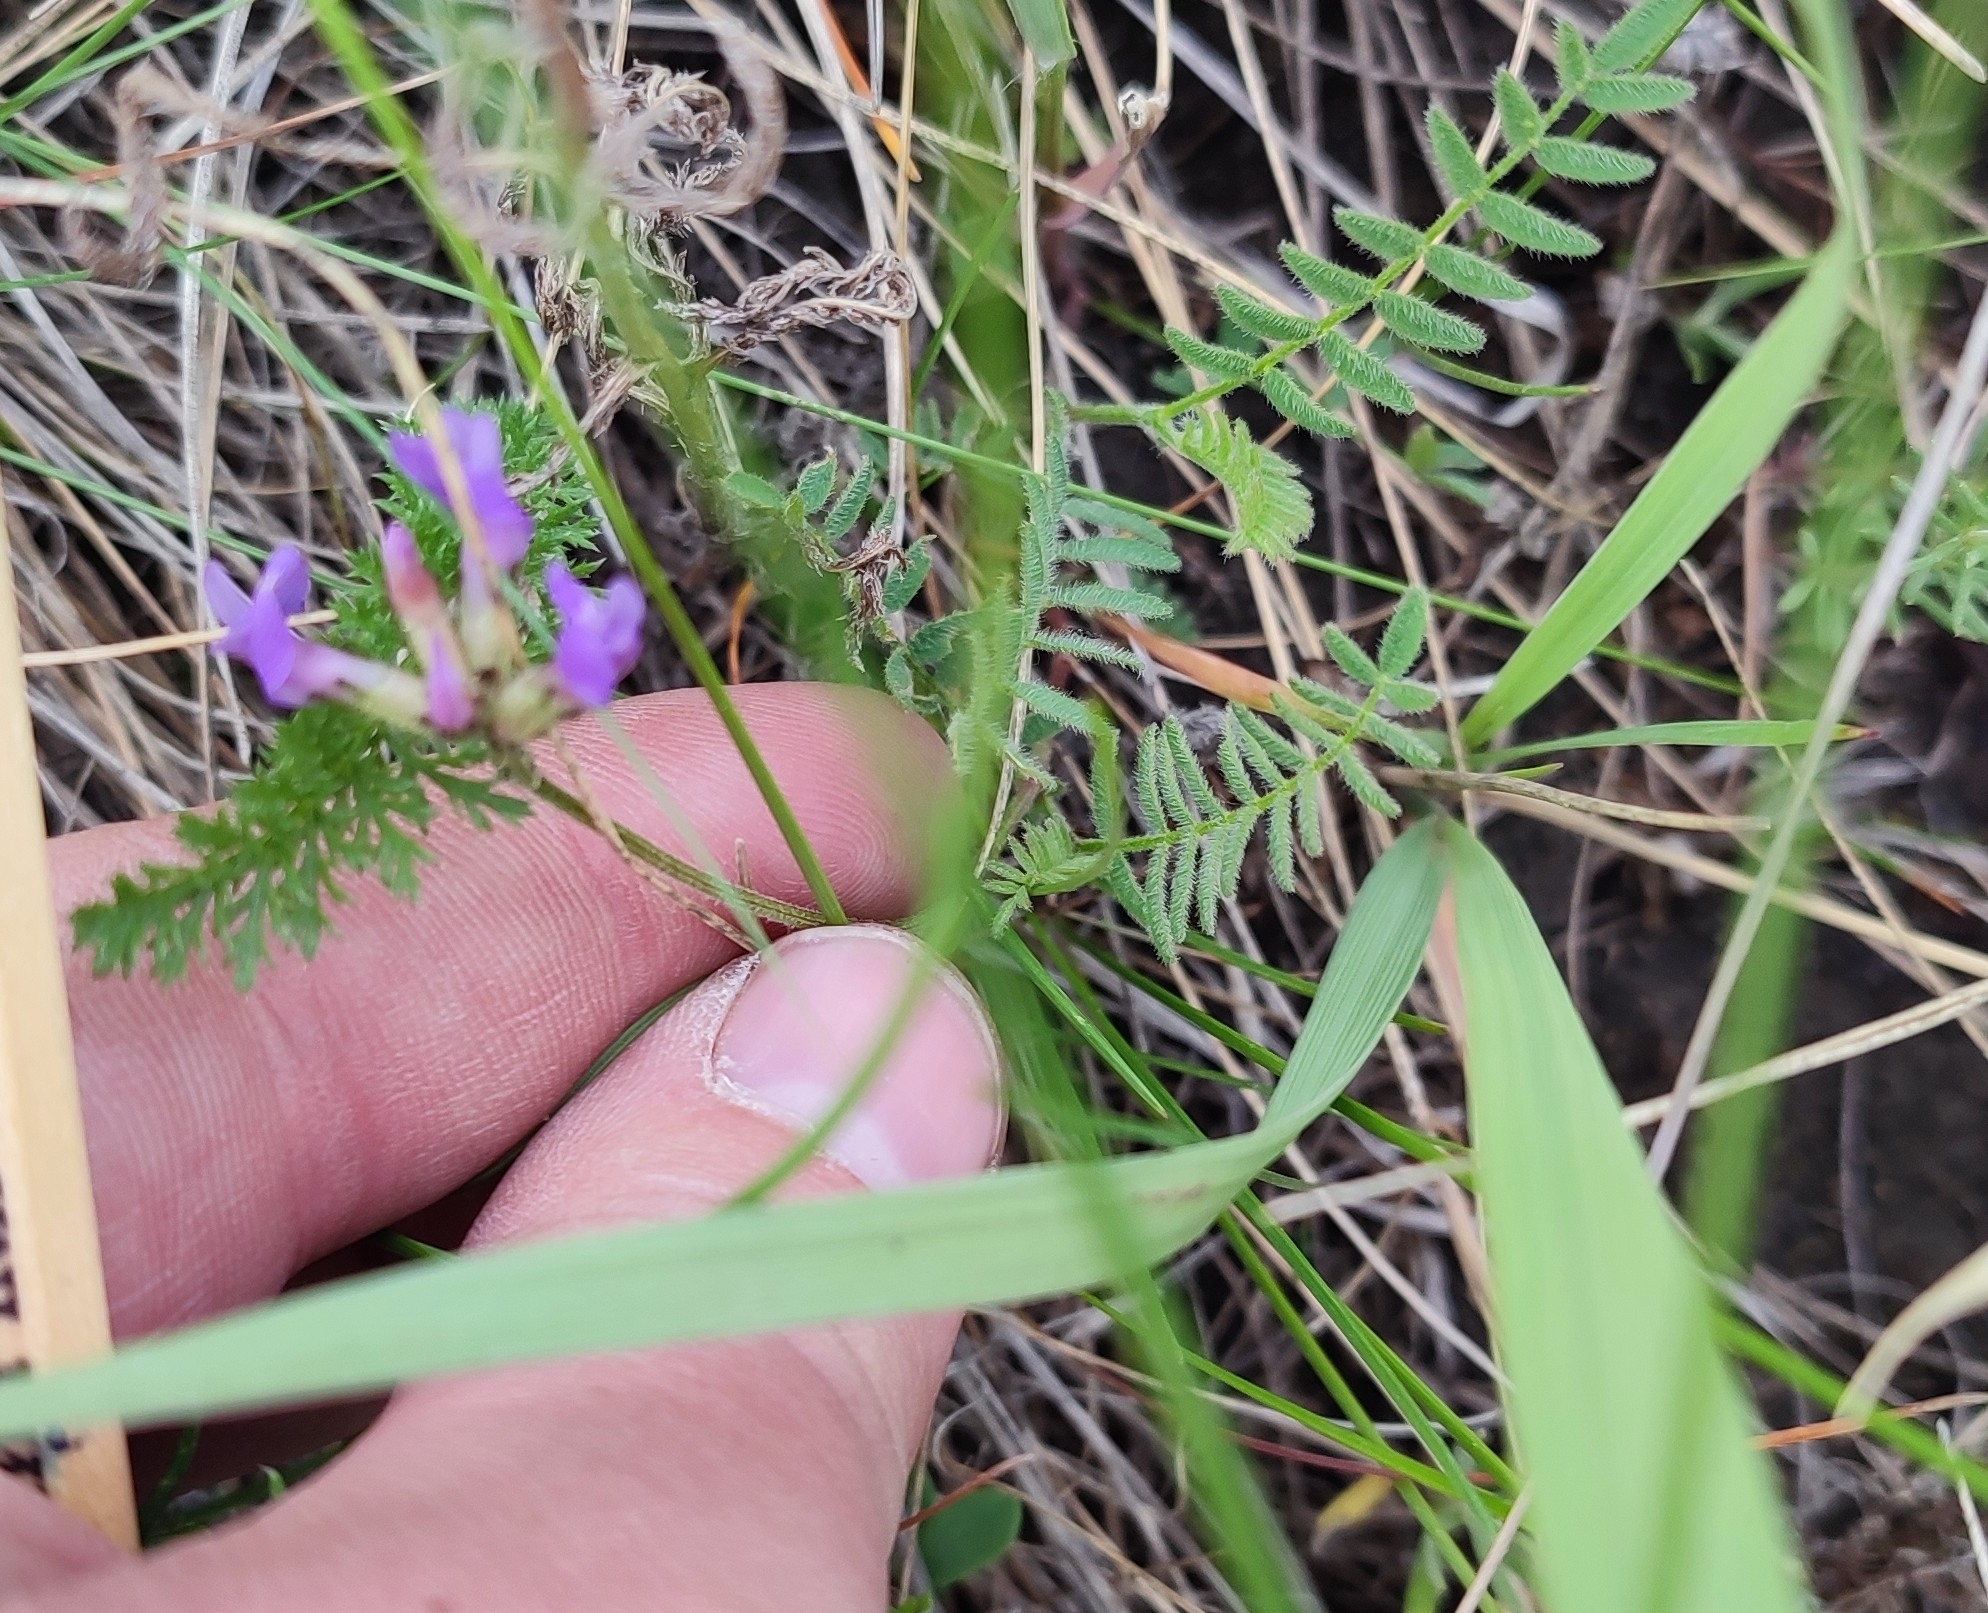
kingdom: Plantae
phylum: Tracheophyta
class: Magnoliopsida
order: Fabales
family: Fabaceae
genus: Astragalus
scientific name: Astragalus danicus
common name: Purple milk-vetch
